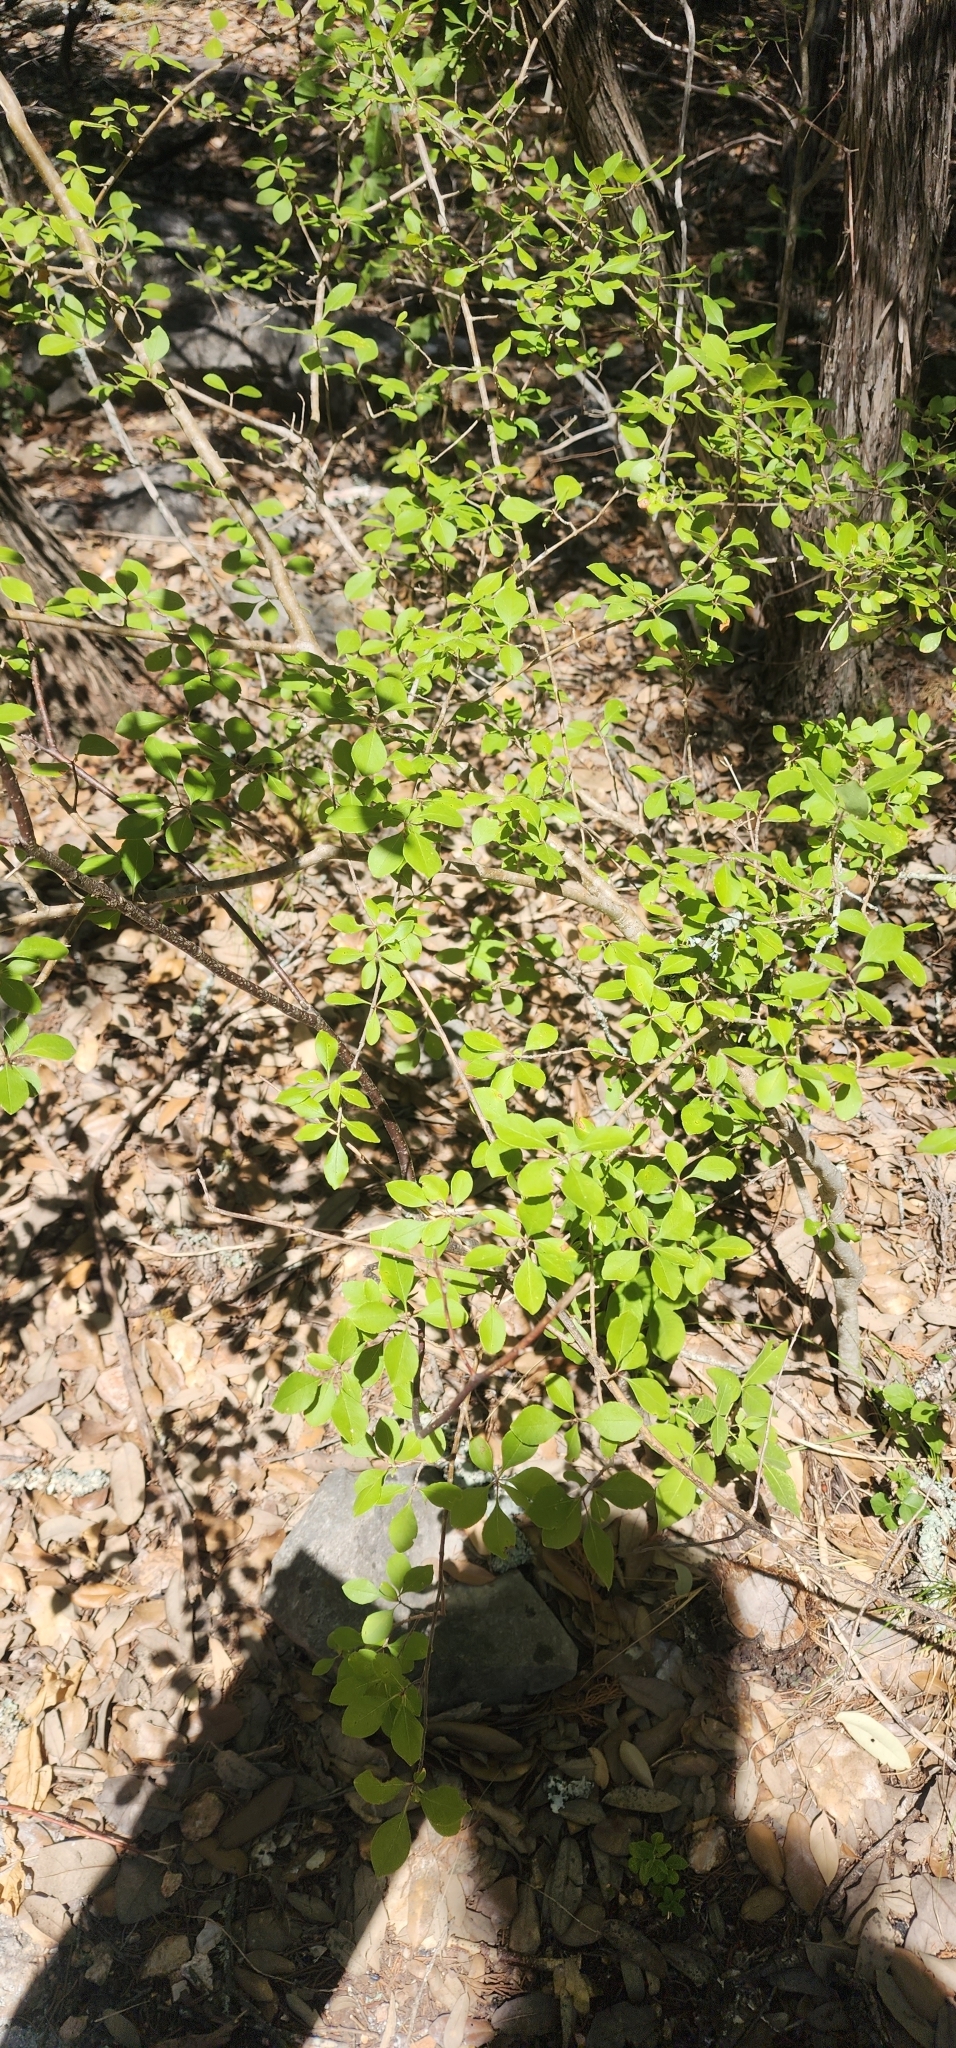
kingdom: Plantae
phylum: Tracheophyta
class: Magnoliopsida
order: Lamiales
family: Oleaceae
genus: Forestiera
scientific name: Forestiera pubescens
